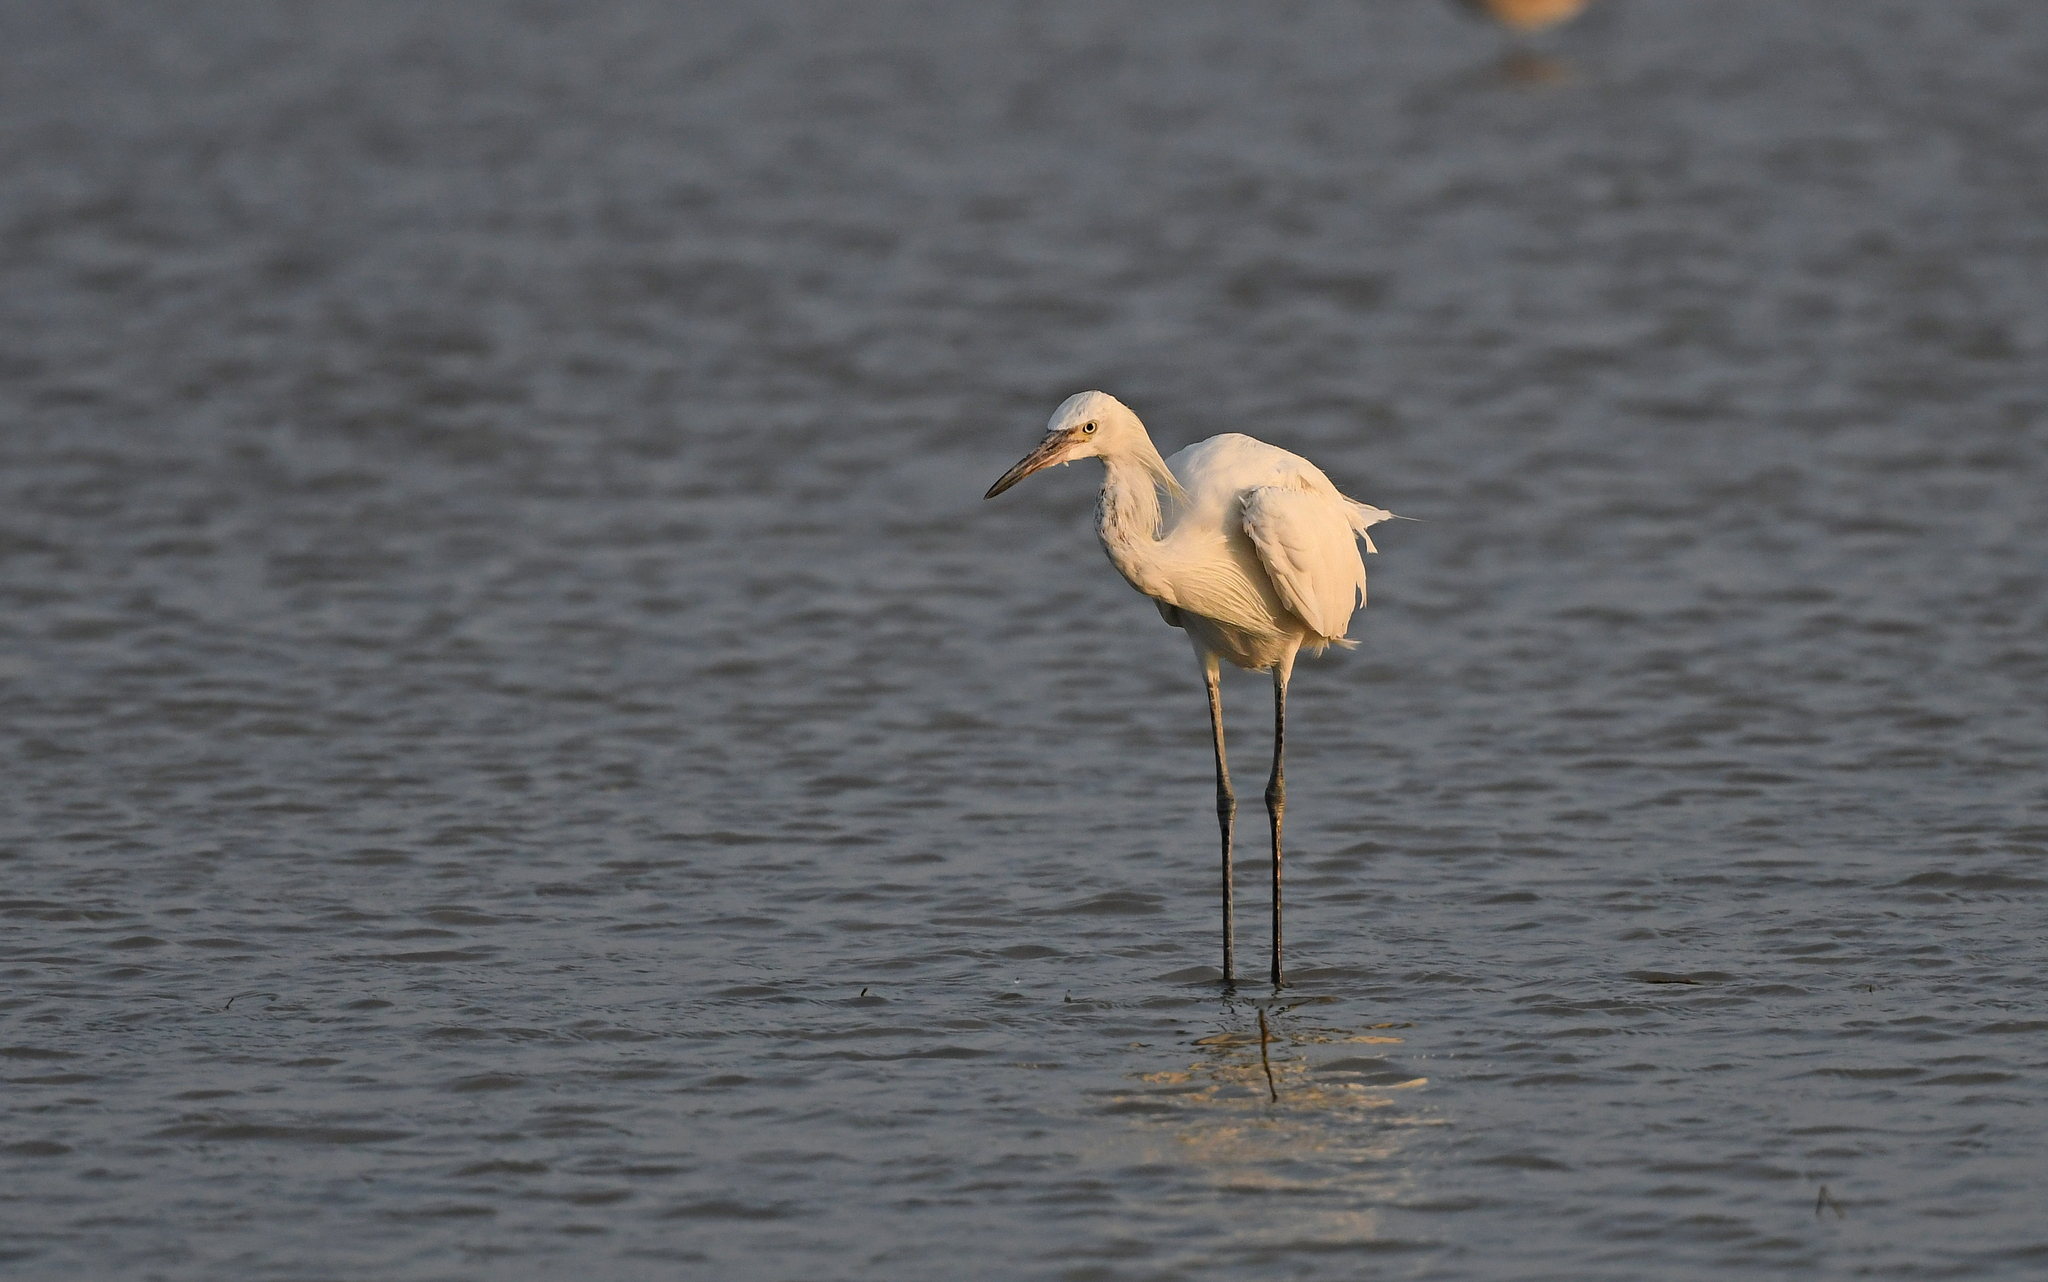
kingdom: Animalia
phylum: Chordata
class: Aves
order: Pelecaniformes
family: Ardeidae
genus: Egretta
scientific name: Egretta rufescens
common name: Reddish egret
